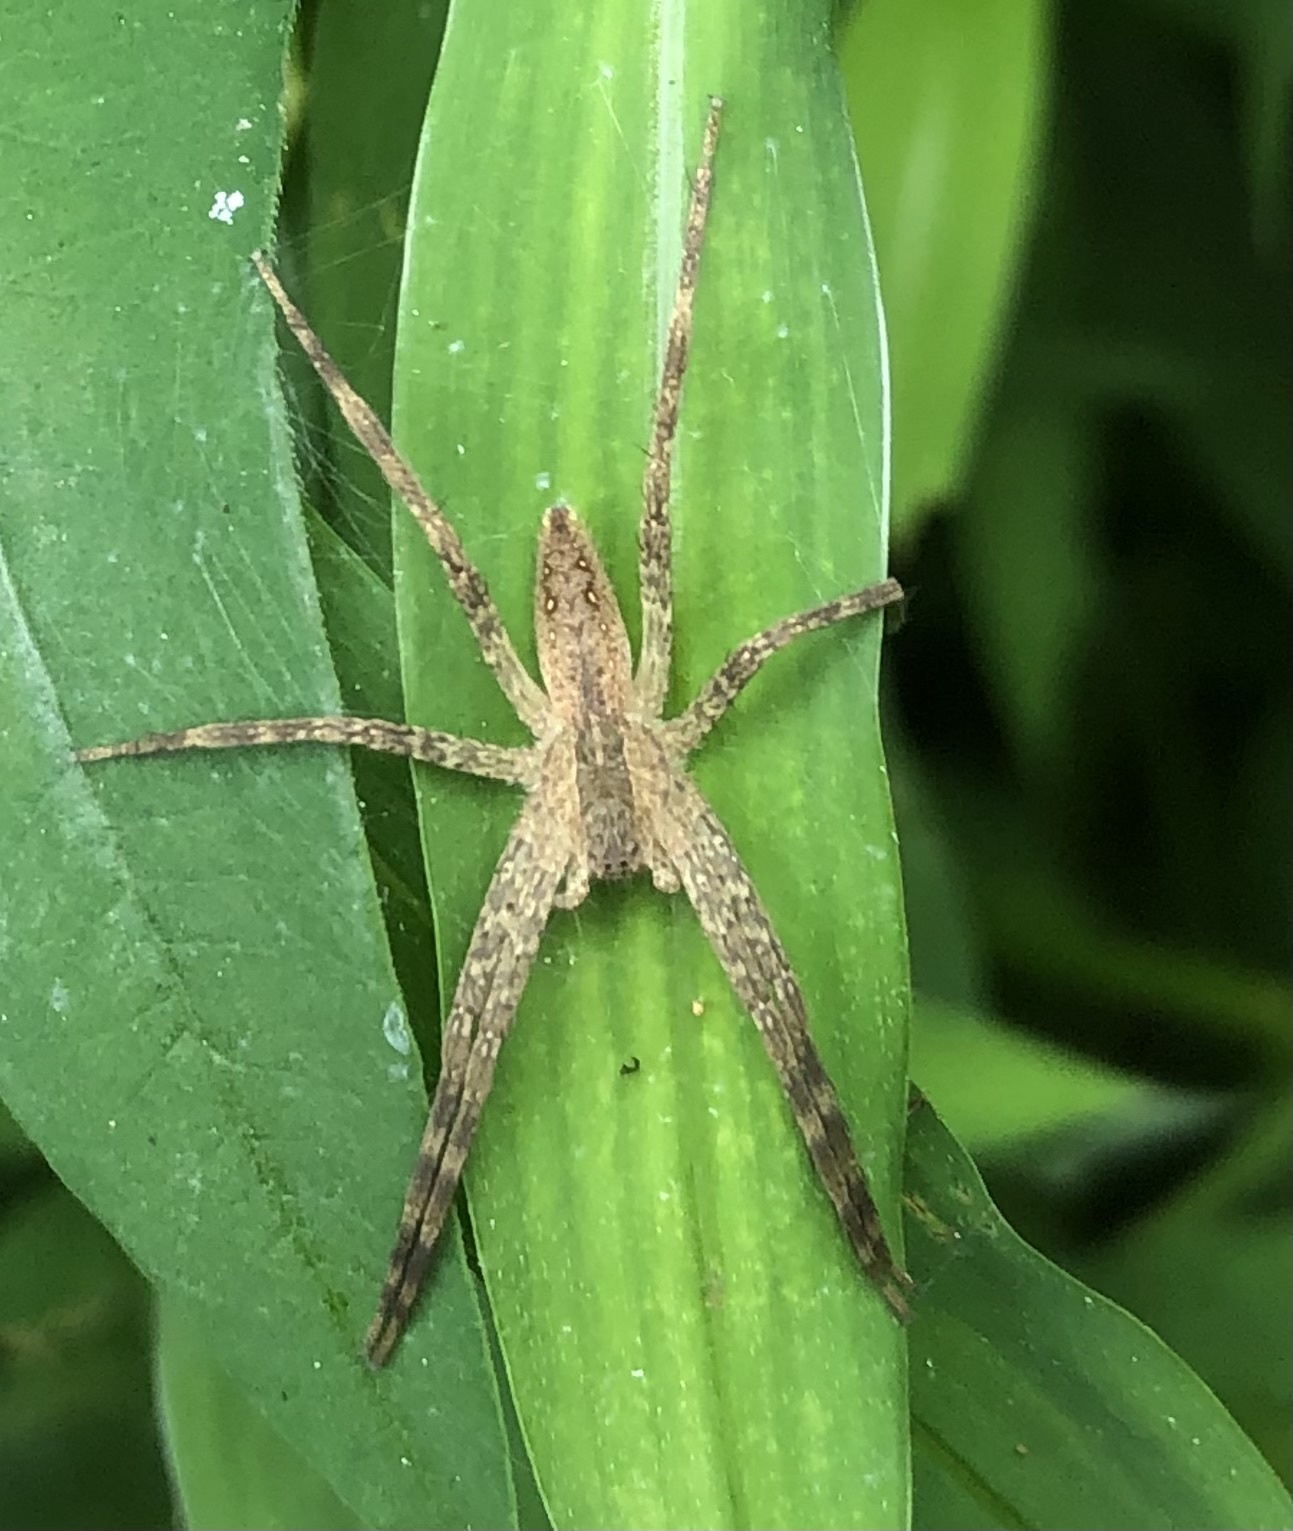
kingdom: Animalia
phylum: Arthropoda
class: Arachnida
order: Araneae
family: Pisauridae
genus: Pisaurina
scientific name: Pisaurina mira
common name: American nursery web spider
